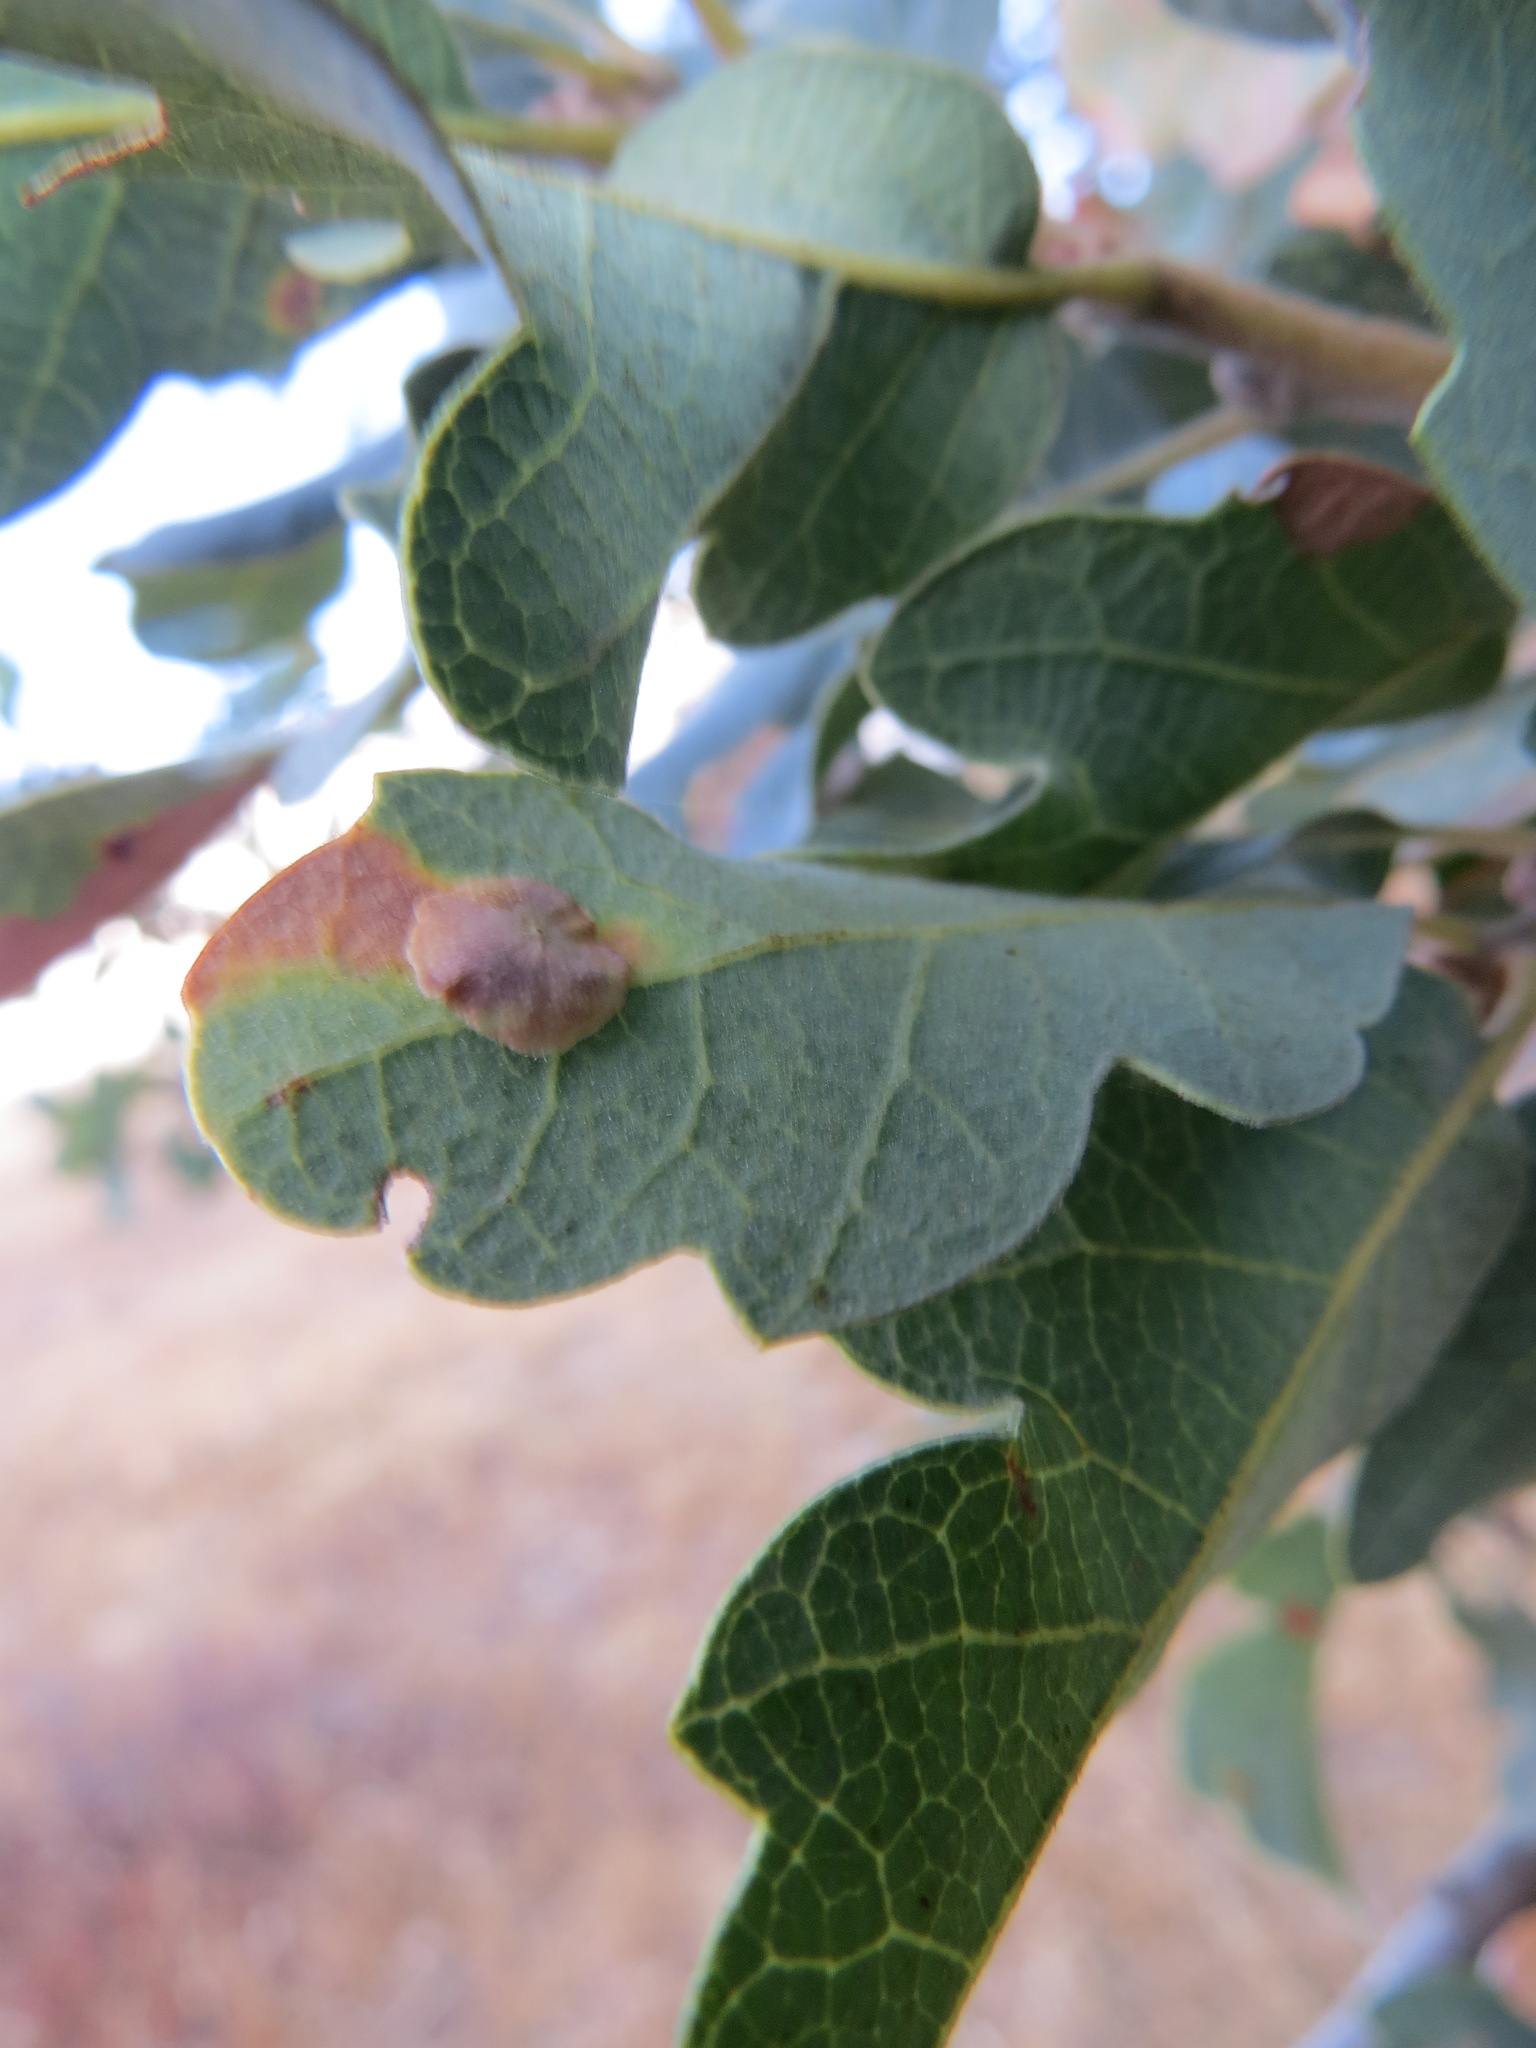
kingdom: Animalia
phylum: Arthropoda
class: Insecta
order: Hymenoptera
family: Cynipidae
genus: Andricus
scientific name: Andricus
